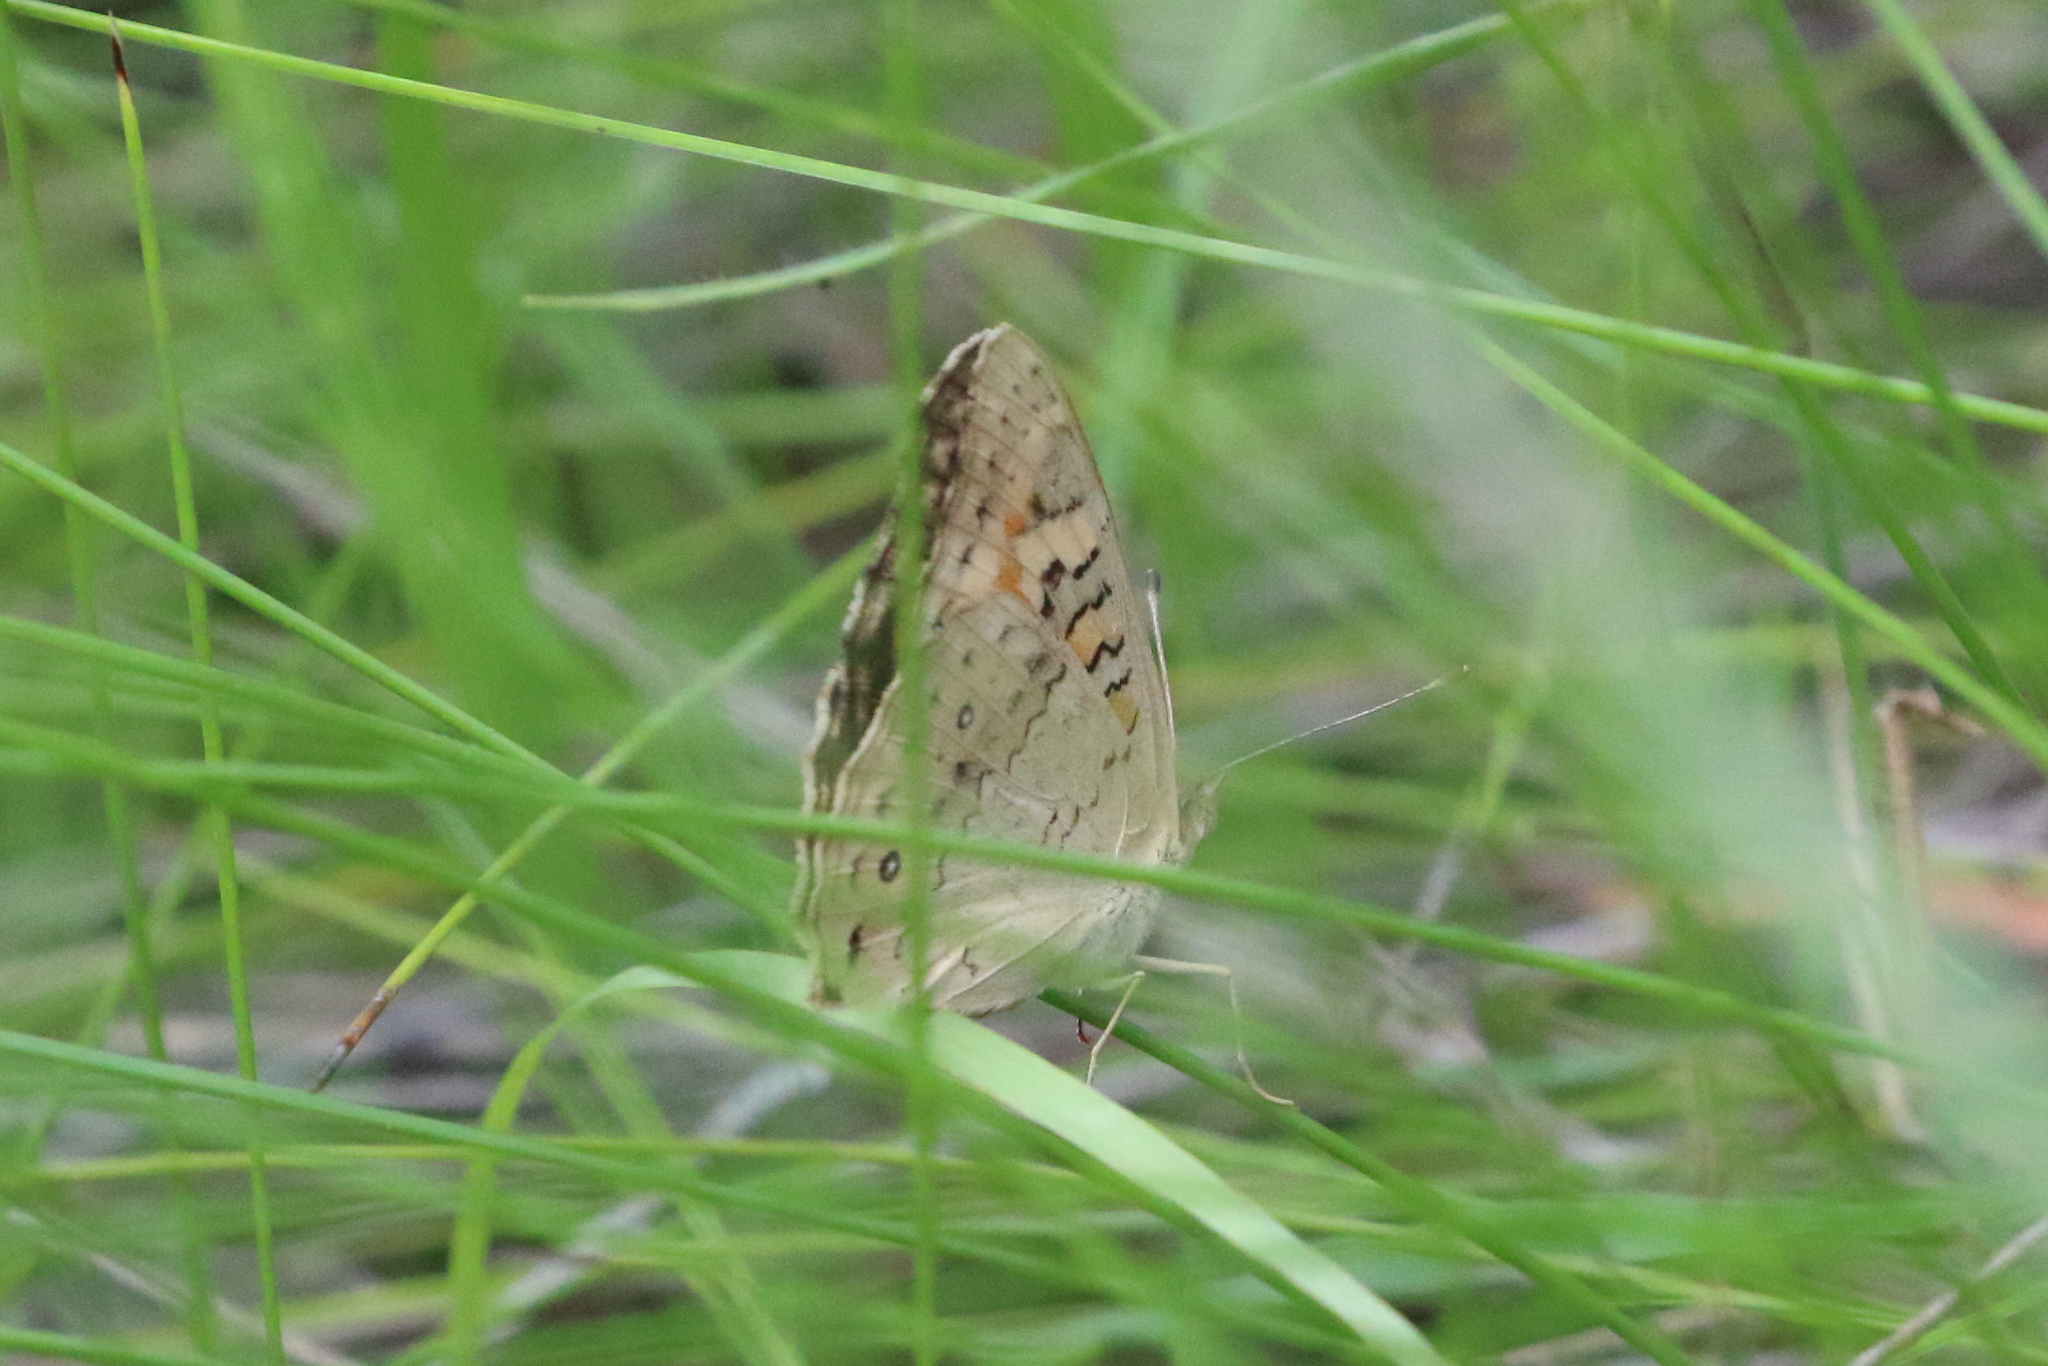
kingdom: Animalia
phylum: Arthropoda
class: Insecta
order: Lepidoptera
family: Nymphalidae
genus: Junonia
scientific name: Junonia villida
